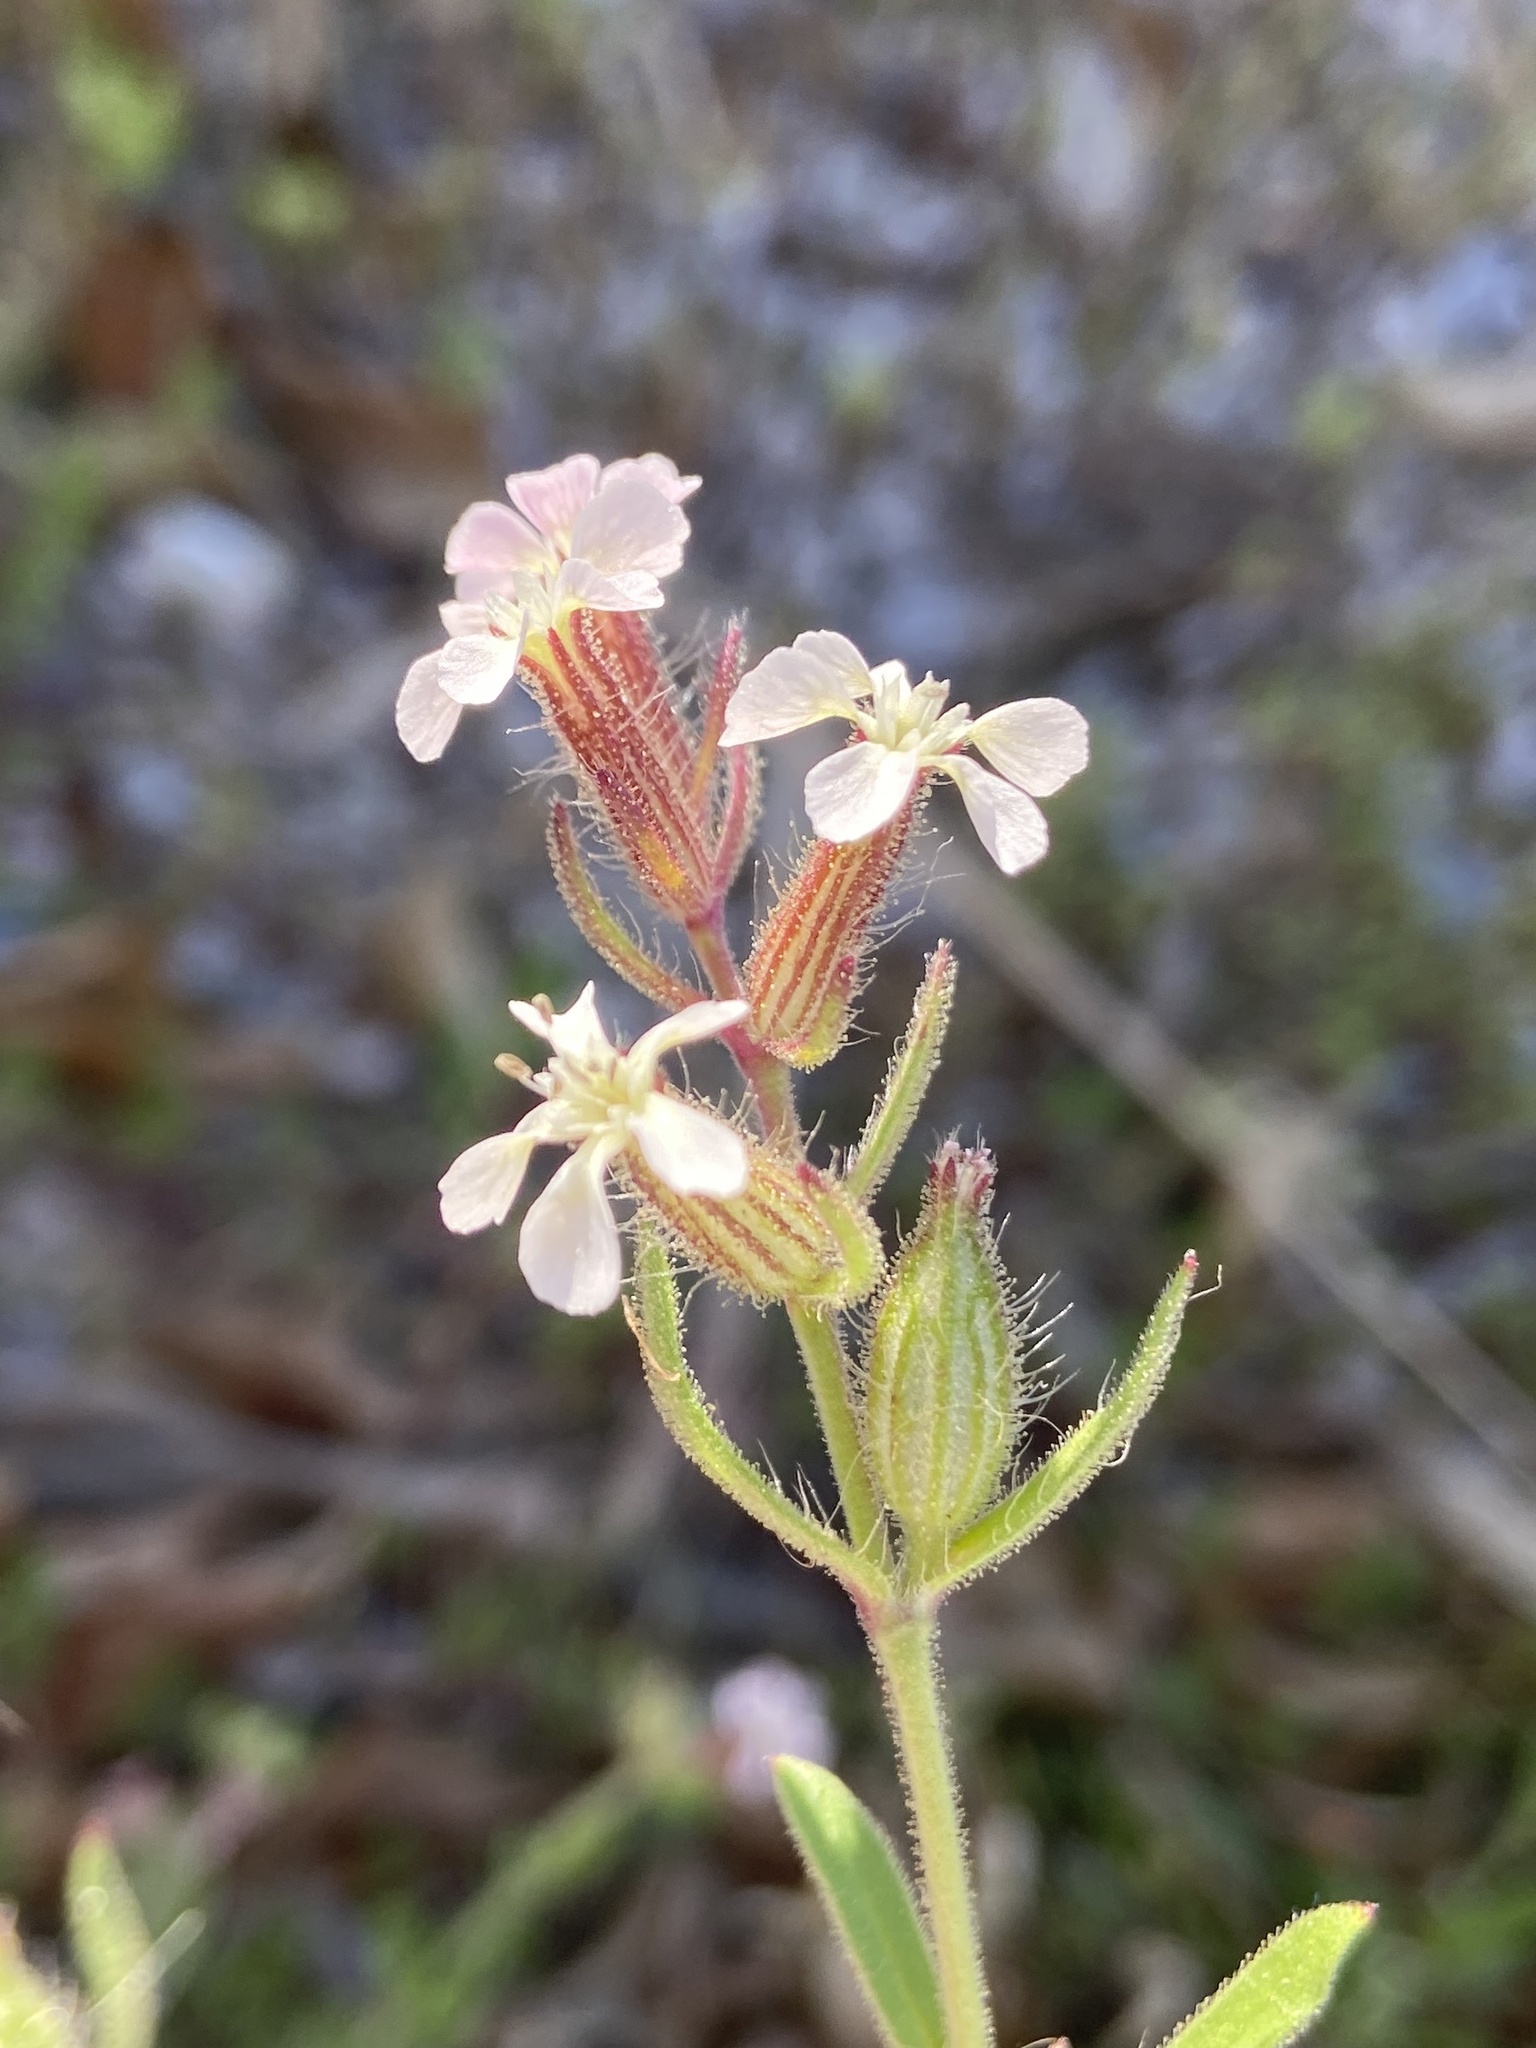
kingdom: Plantae
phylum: Tracheophyta
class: Magnoliopsida
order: Caryophyllales
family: Caryophyllaceae
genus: Silene
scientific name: Silene gallica
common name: Small-flowered catchfly
